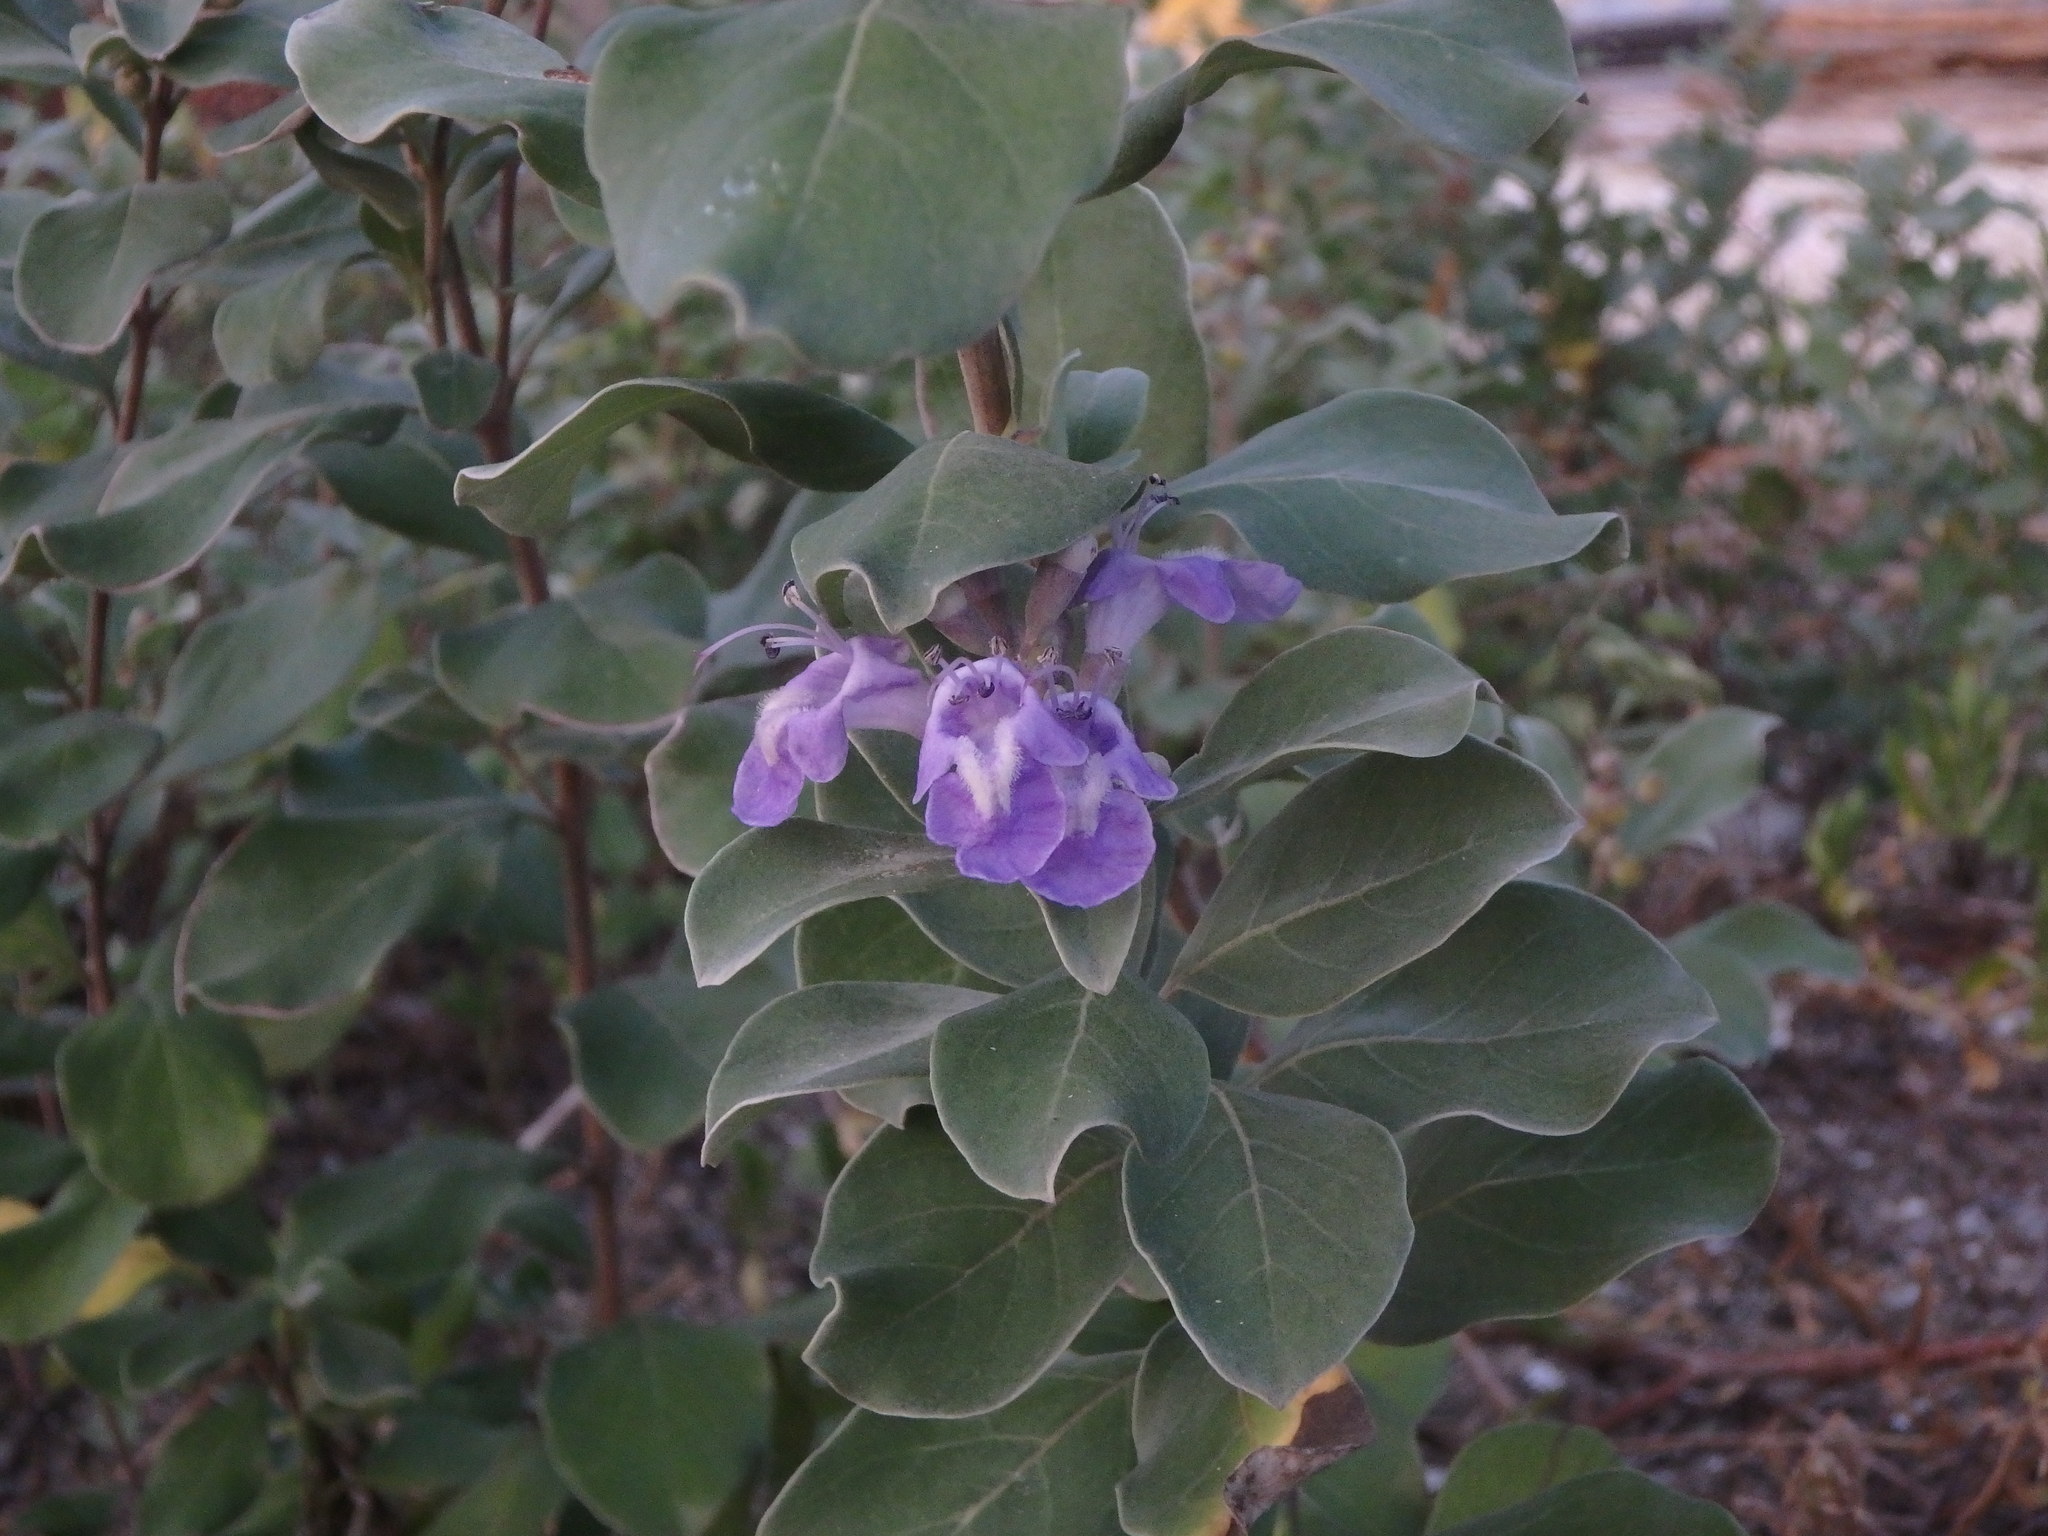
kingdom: Plantae
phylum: Tracheophyta
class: Magnoliopsida
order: Lamiales
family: Lamiaceae
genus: Vitex
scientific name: Vitex rotundifolia
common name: Beach vitex
